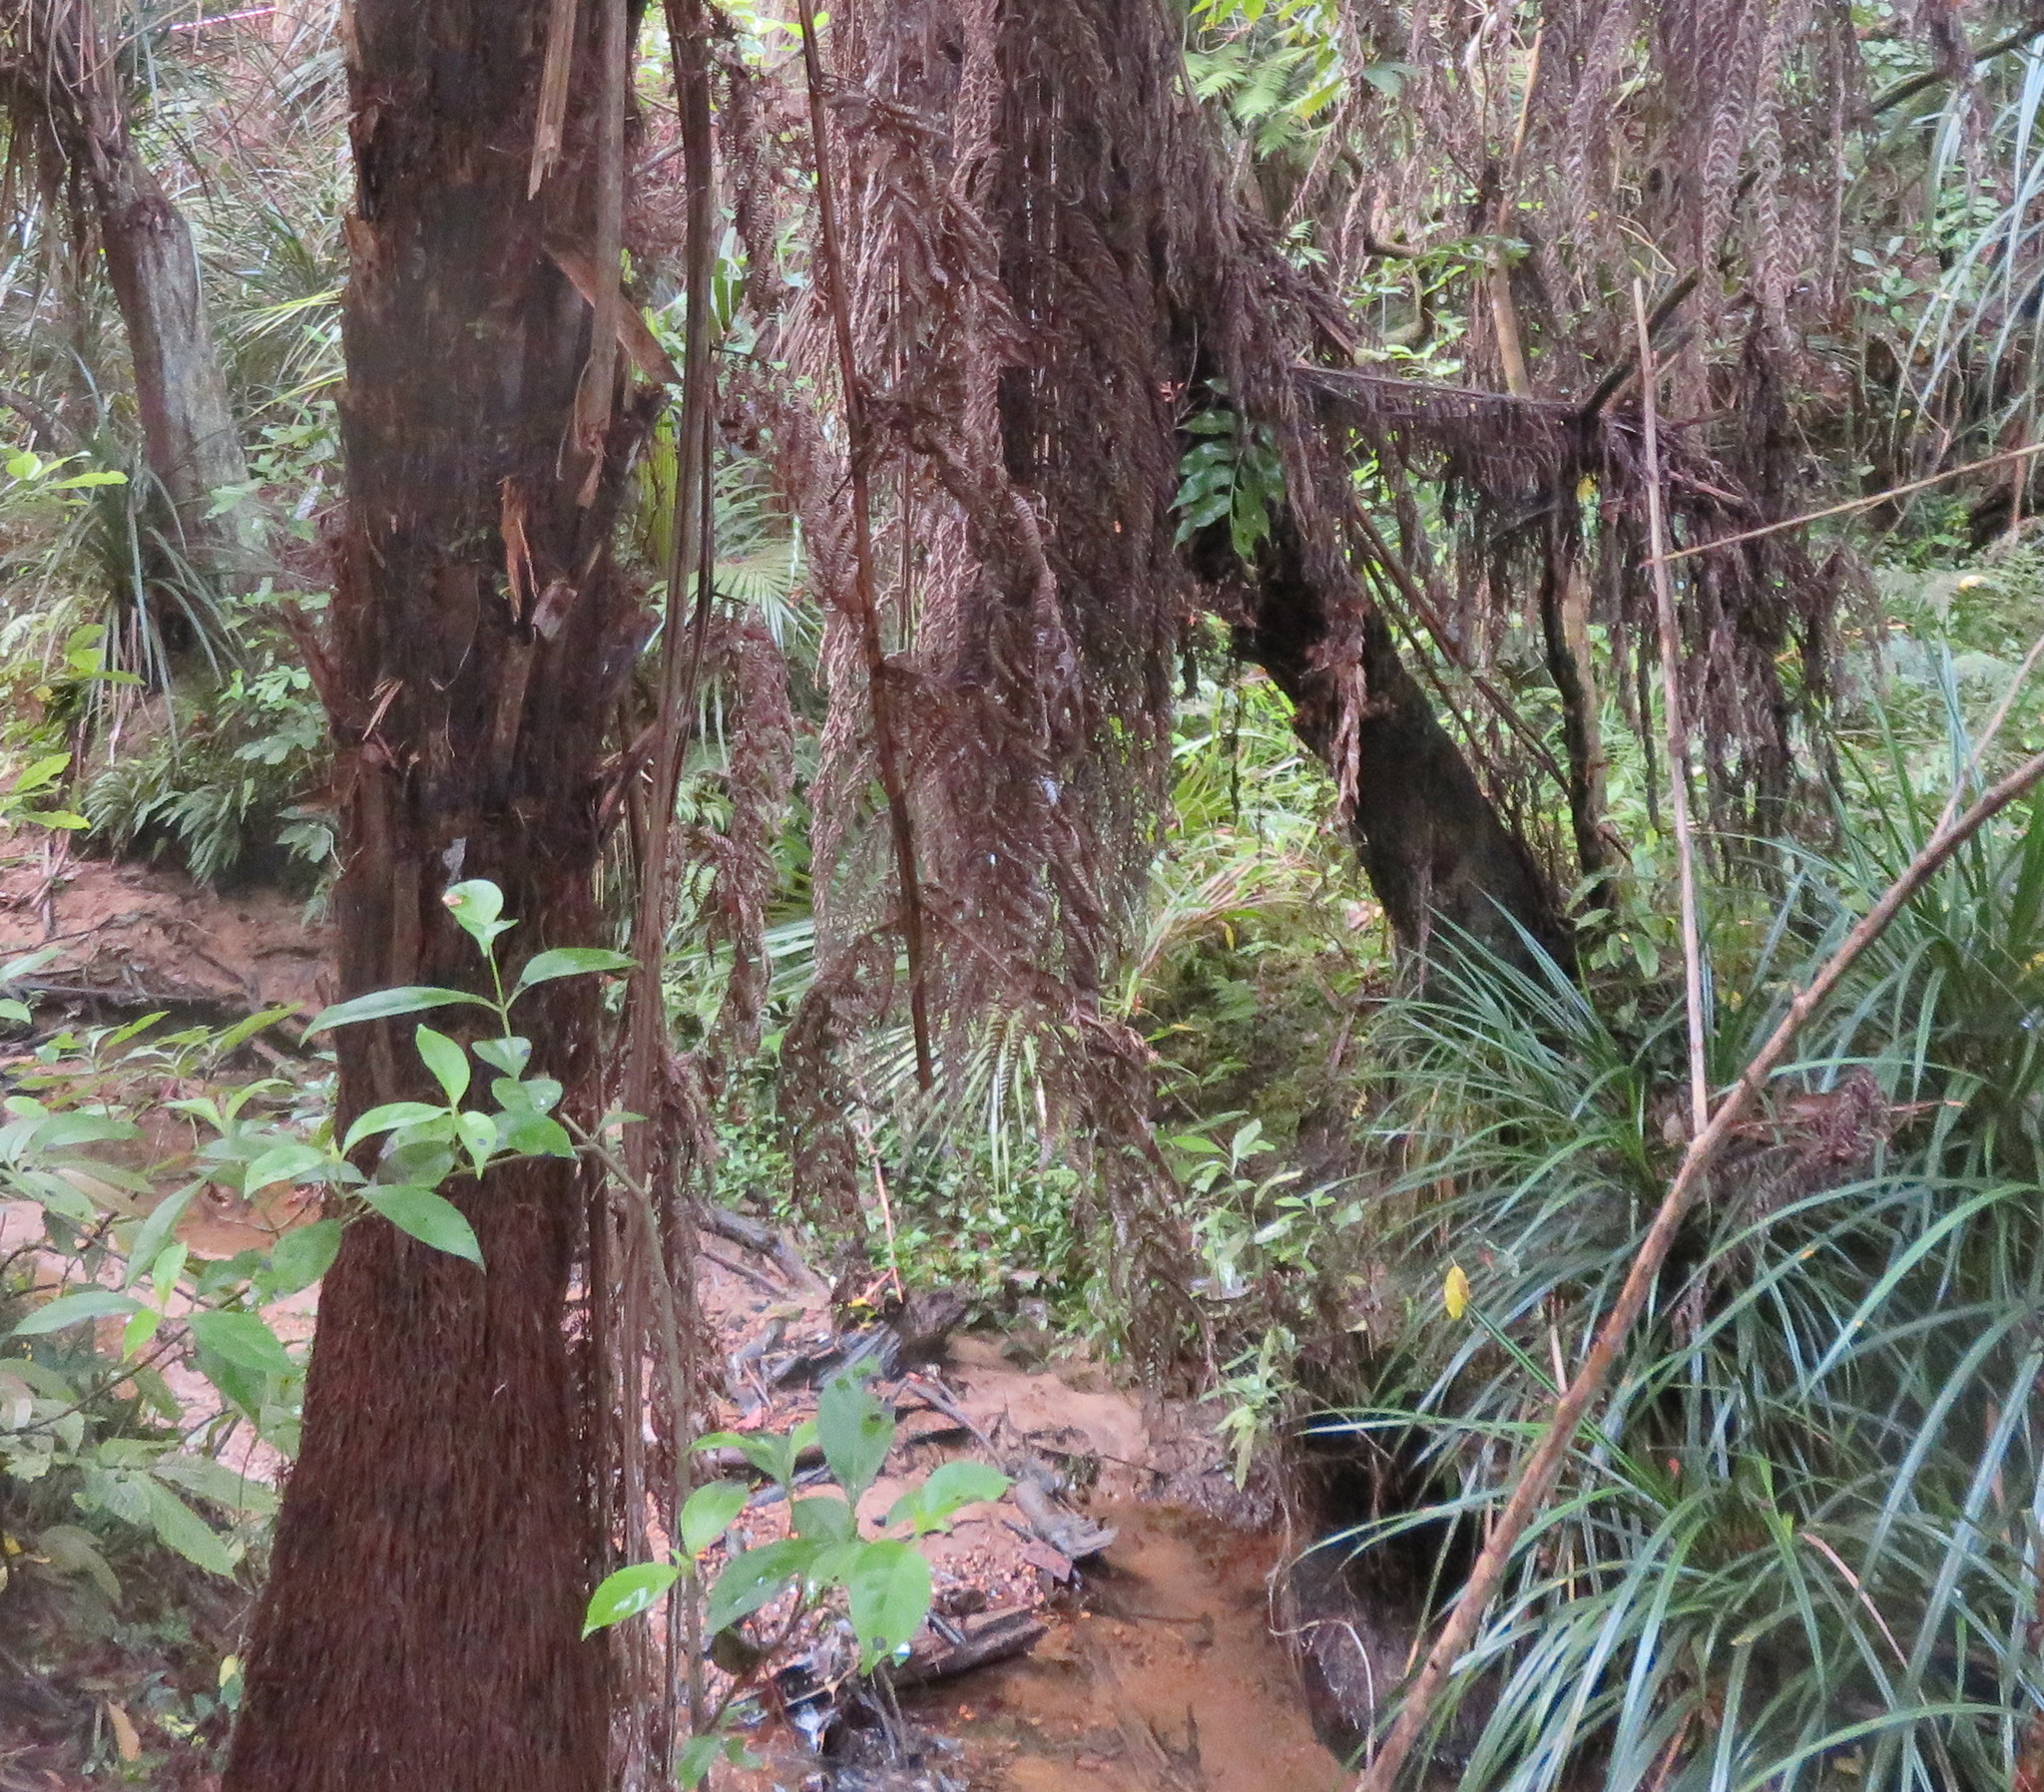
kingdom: Plantae
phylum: Tracheophyta
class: Magnoliopsida
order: Gentianales
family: Loganiaceae
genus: Geniostoma
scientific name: Geniostoma ligustrifolium
